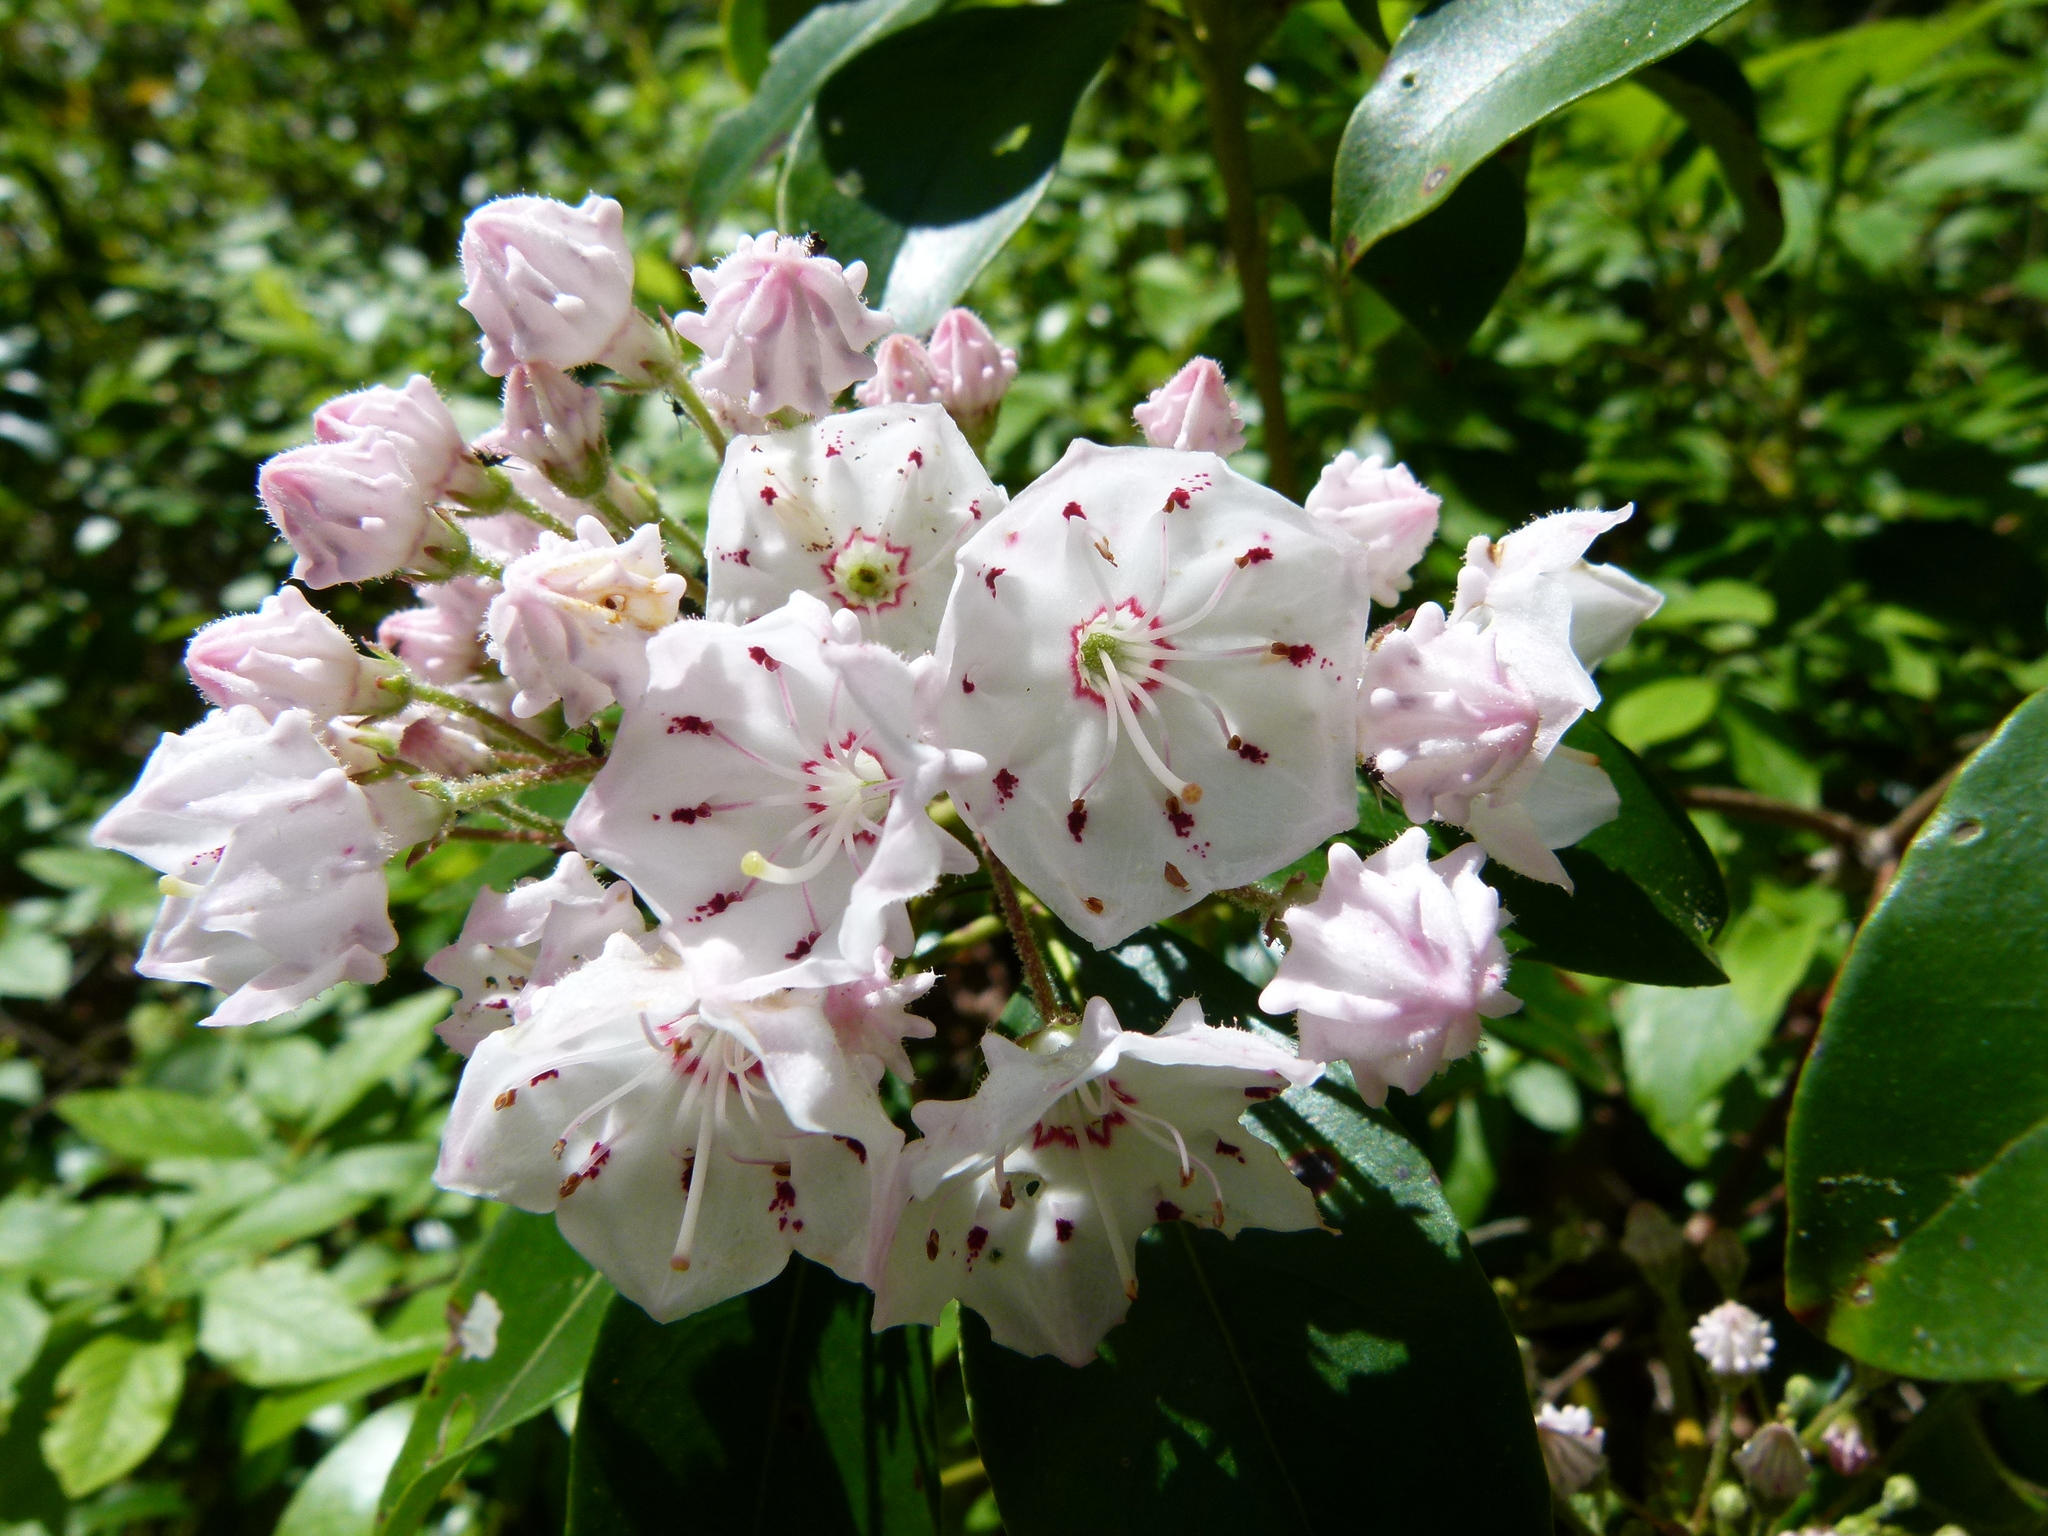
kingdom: Plantae
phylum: Tracheophyta
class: Magnoliopsida
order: Ericales
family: Ericaceae
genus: Kalmia
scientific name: Kalmia latifolia
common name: Mountain-laurel
